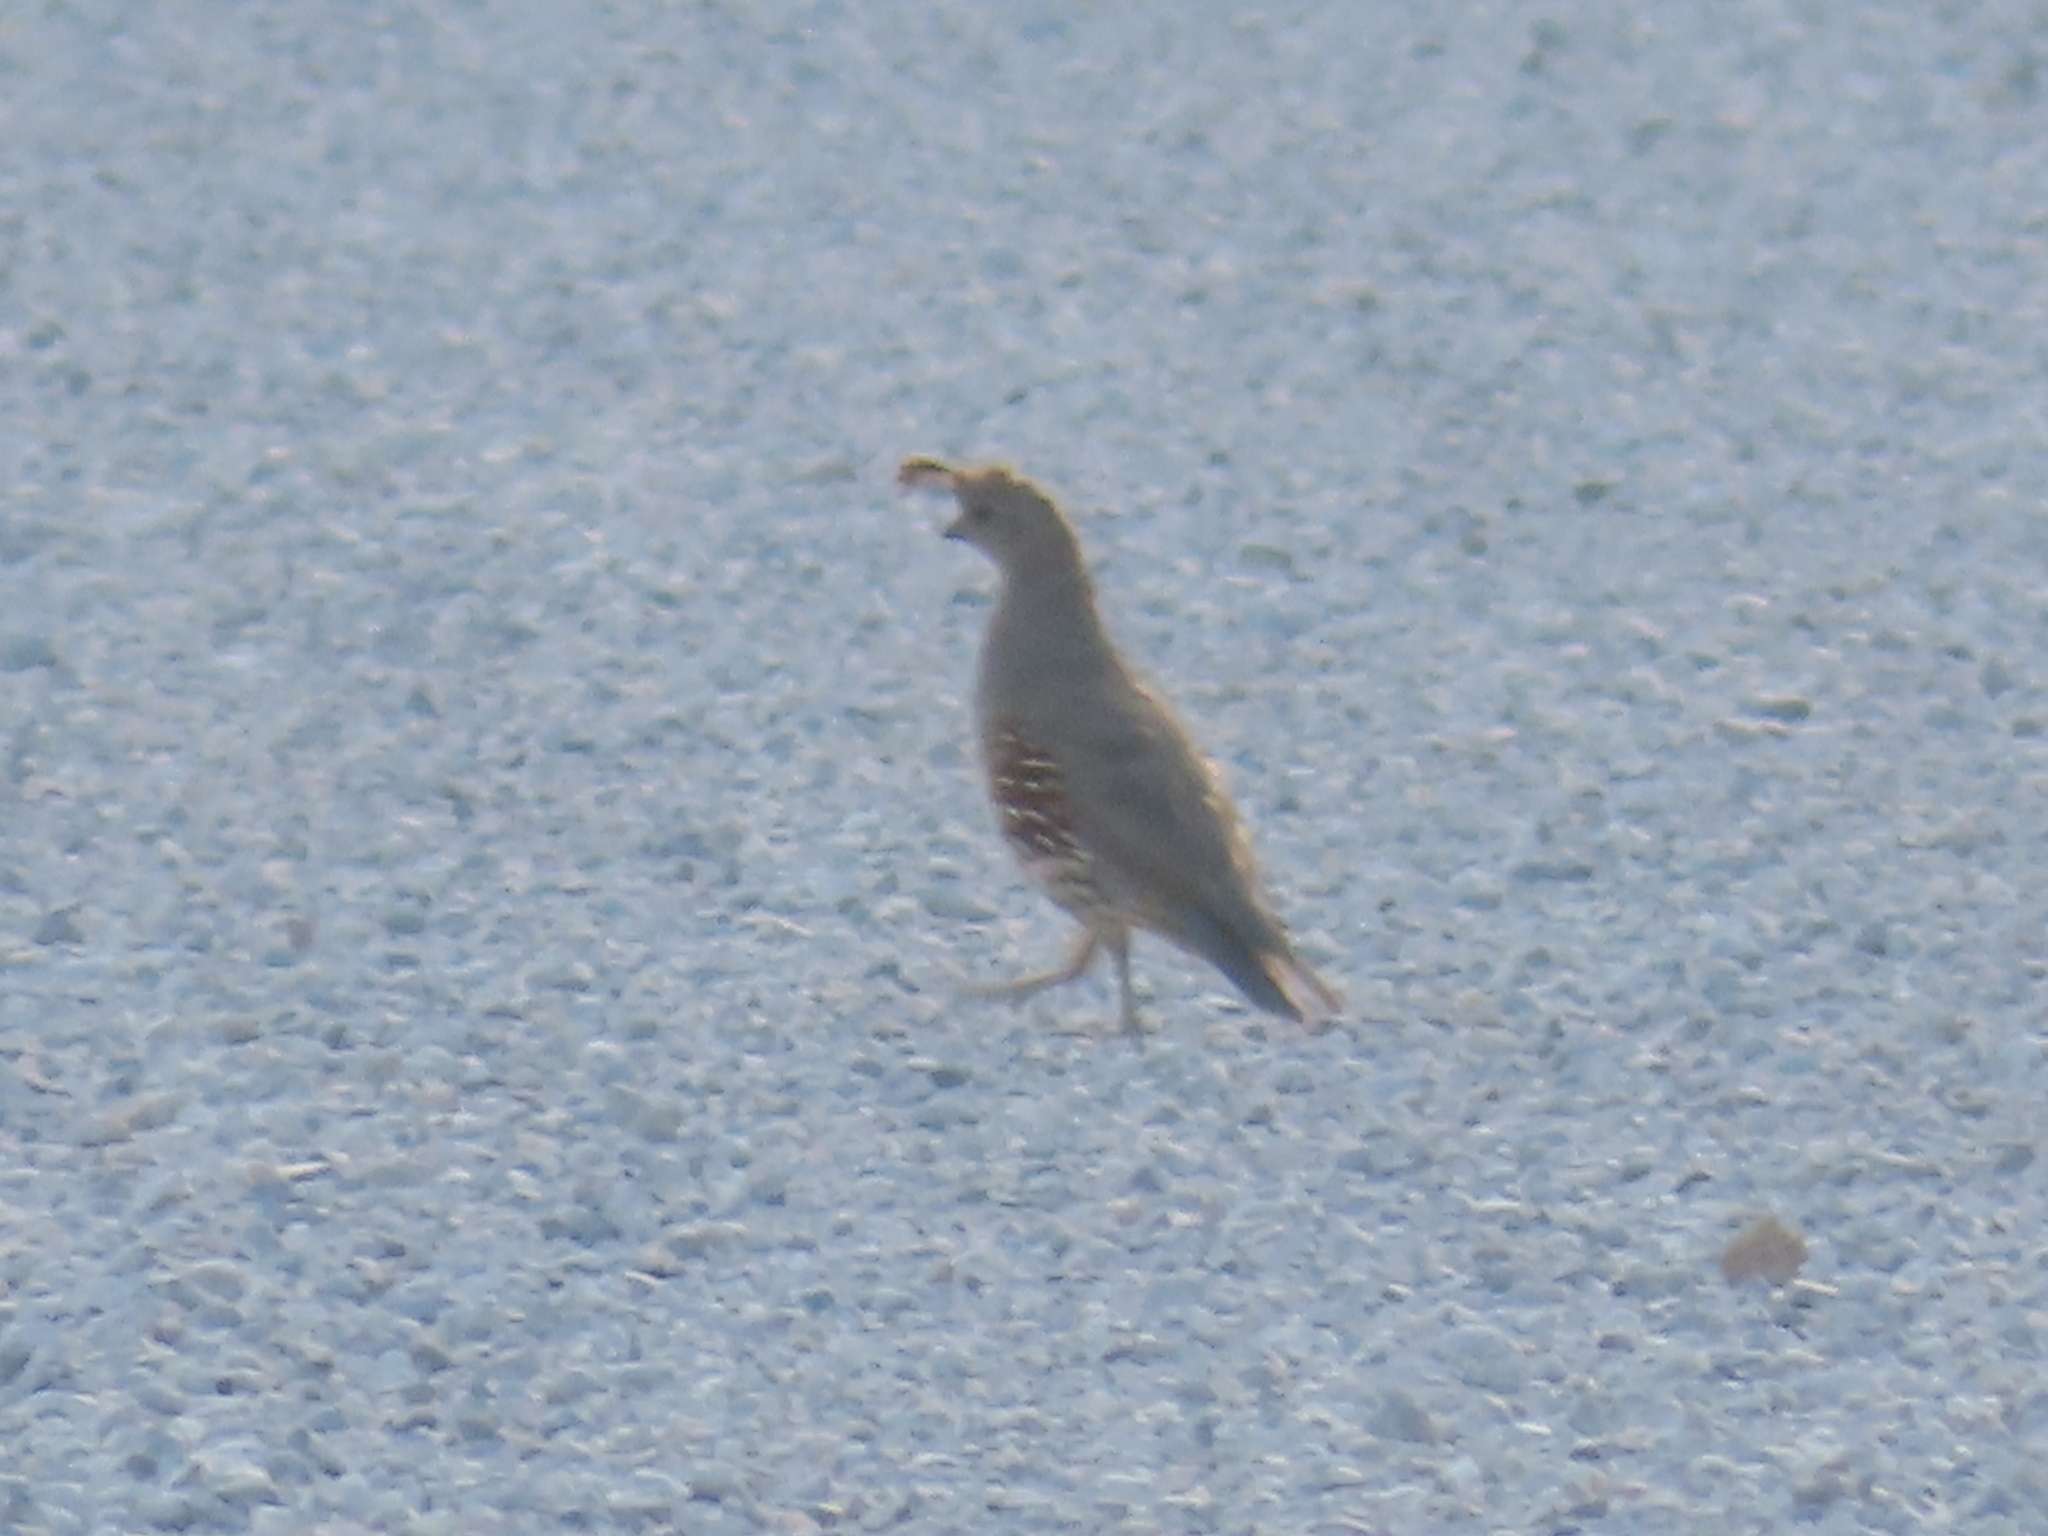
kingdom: Animalia
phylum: Chordata
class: Aves
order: Galliformes
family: Odontophoridae
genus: Callipepla
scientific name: Callipepla gambelii
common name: Gambel's quail
